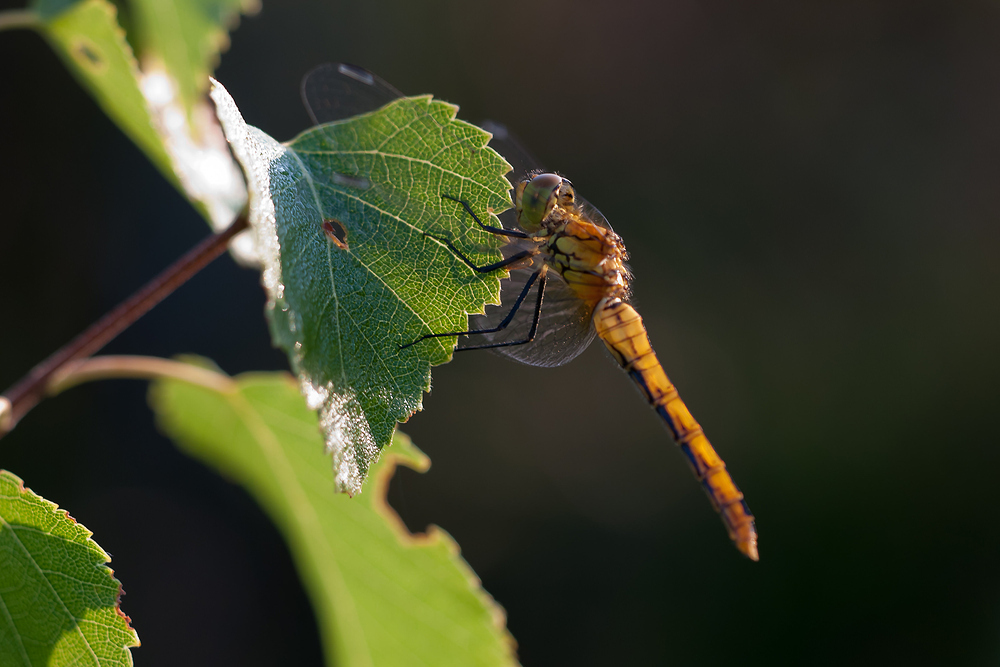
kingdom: Animalia
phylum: Arthropoda
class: Insecta
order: Odonata
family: Libellulidae
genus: Sympetrum
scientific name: Sympetrum sanguineum
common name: Ruddy darter
